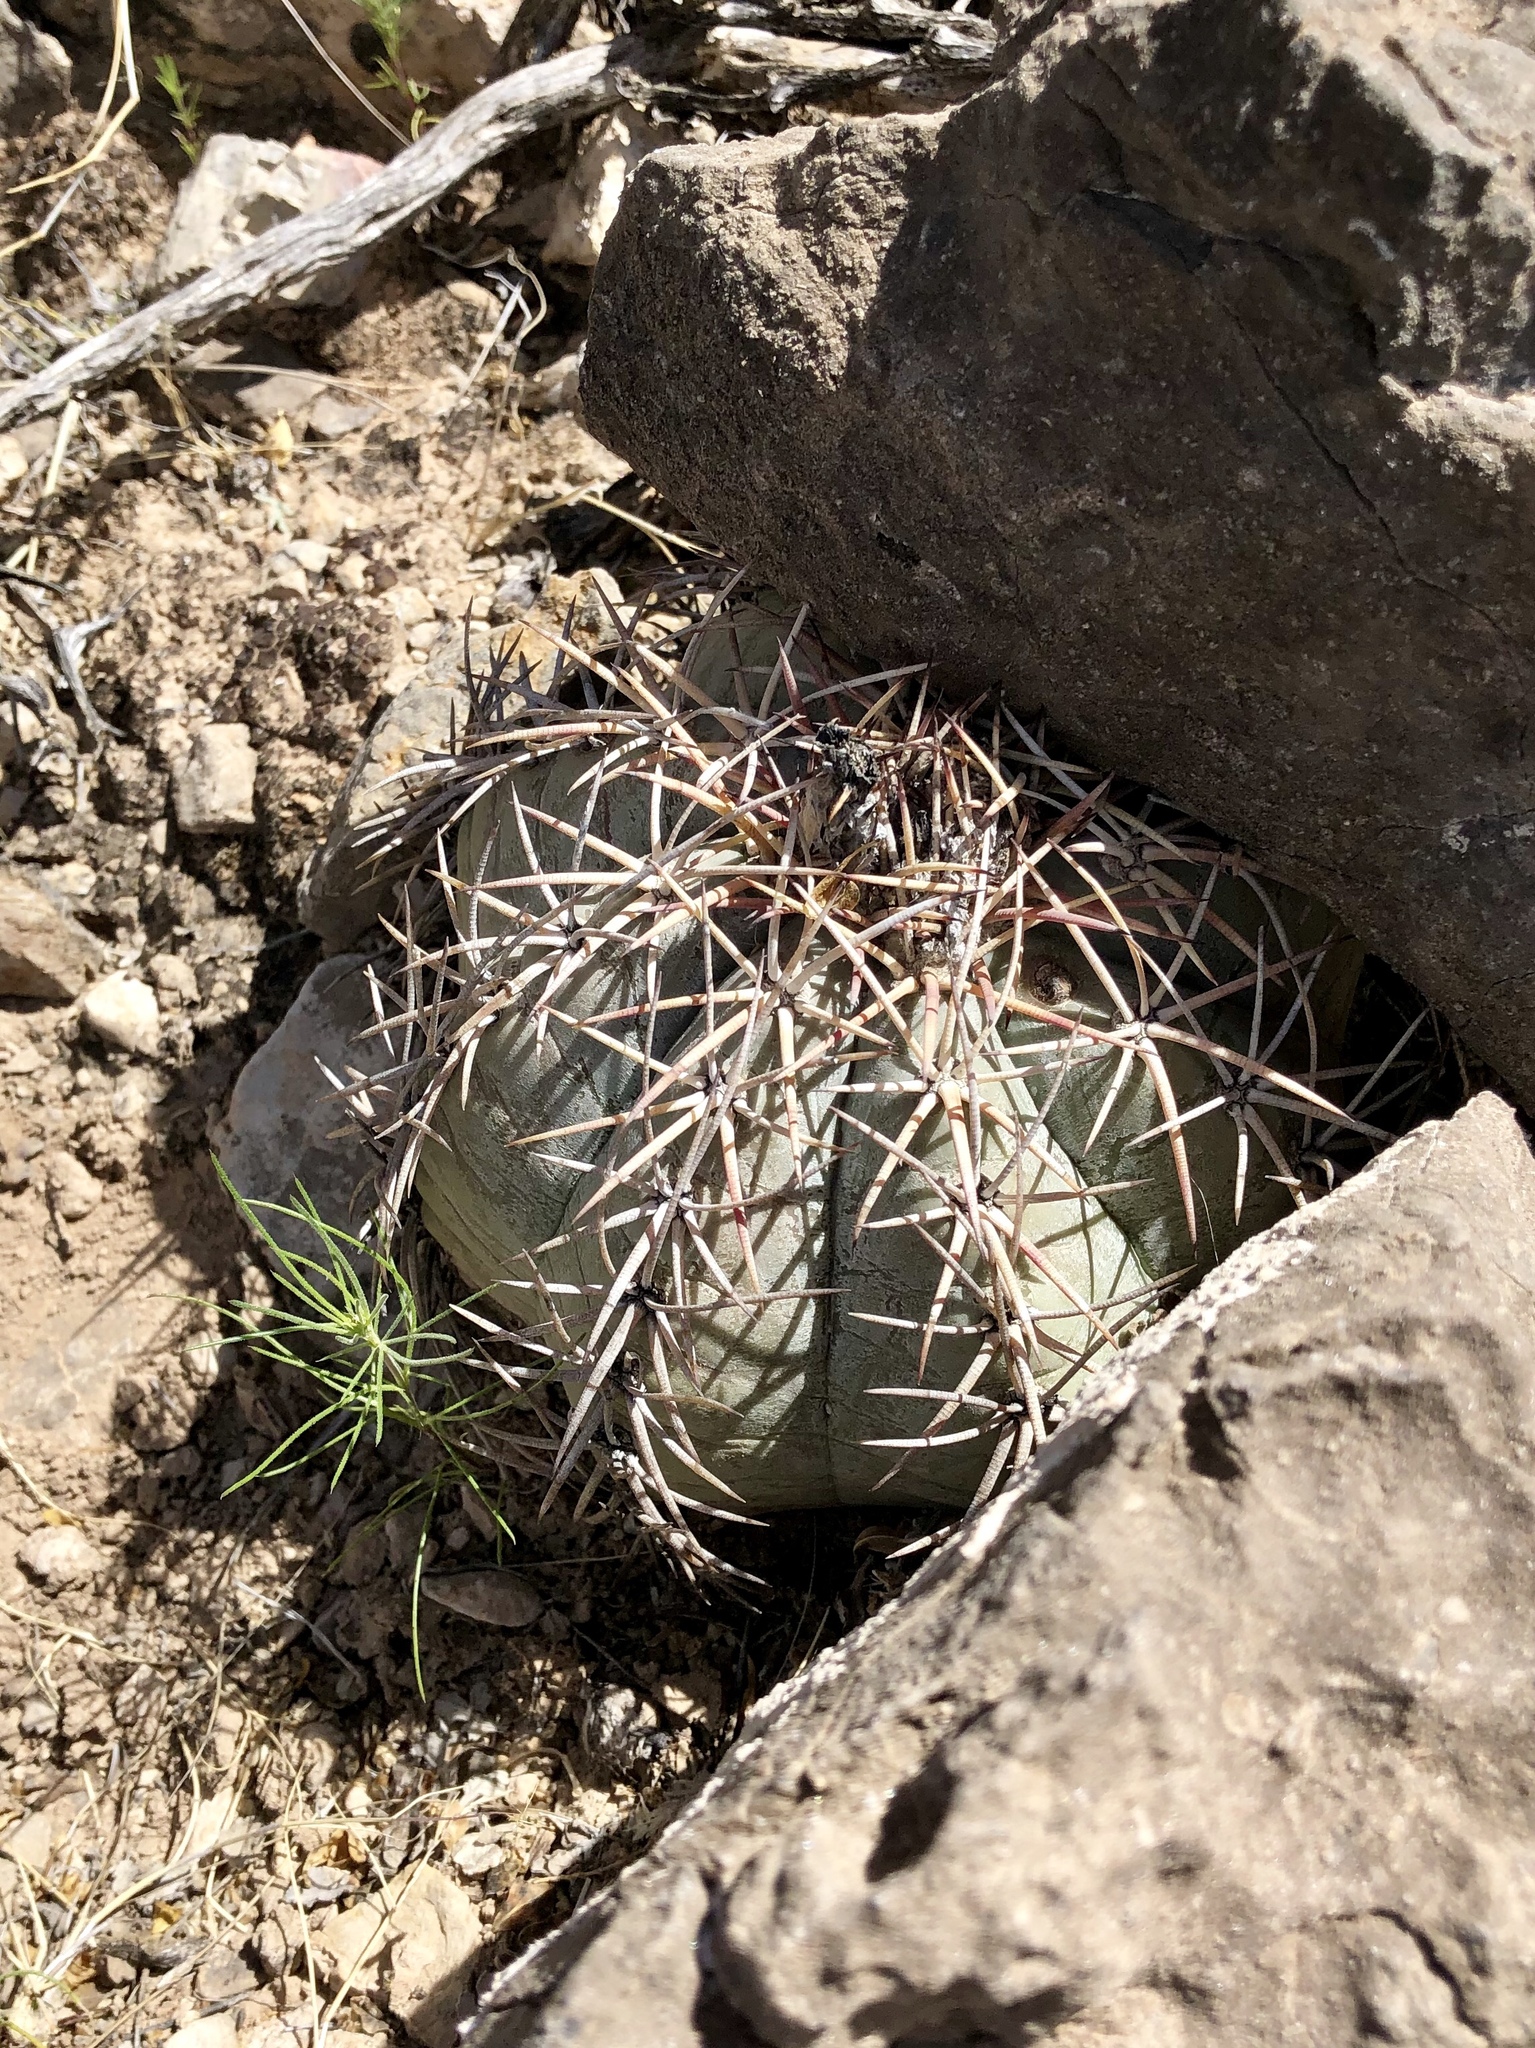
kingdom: Plantae
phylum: Tracheophyta
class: Magnoliopsida
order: Caryophyllales
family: Cactaceae
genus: Echinocactus
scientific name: Echinocactus horizonthalonius
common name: Devilshead
